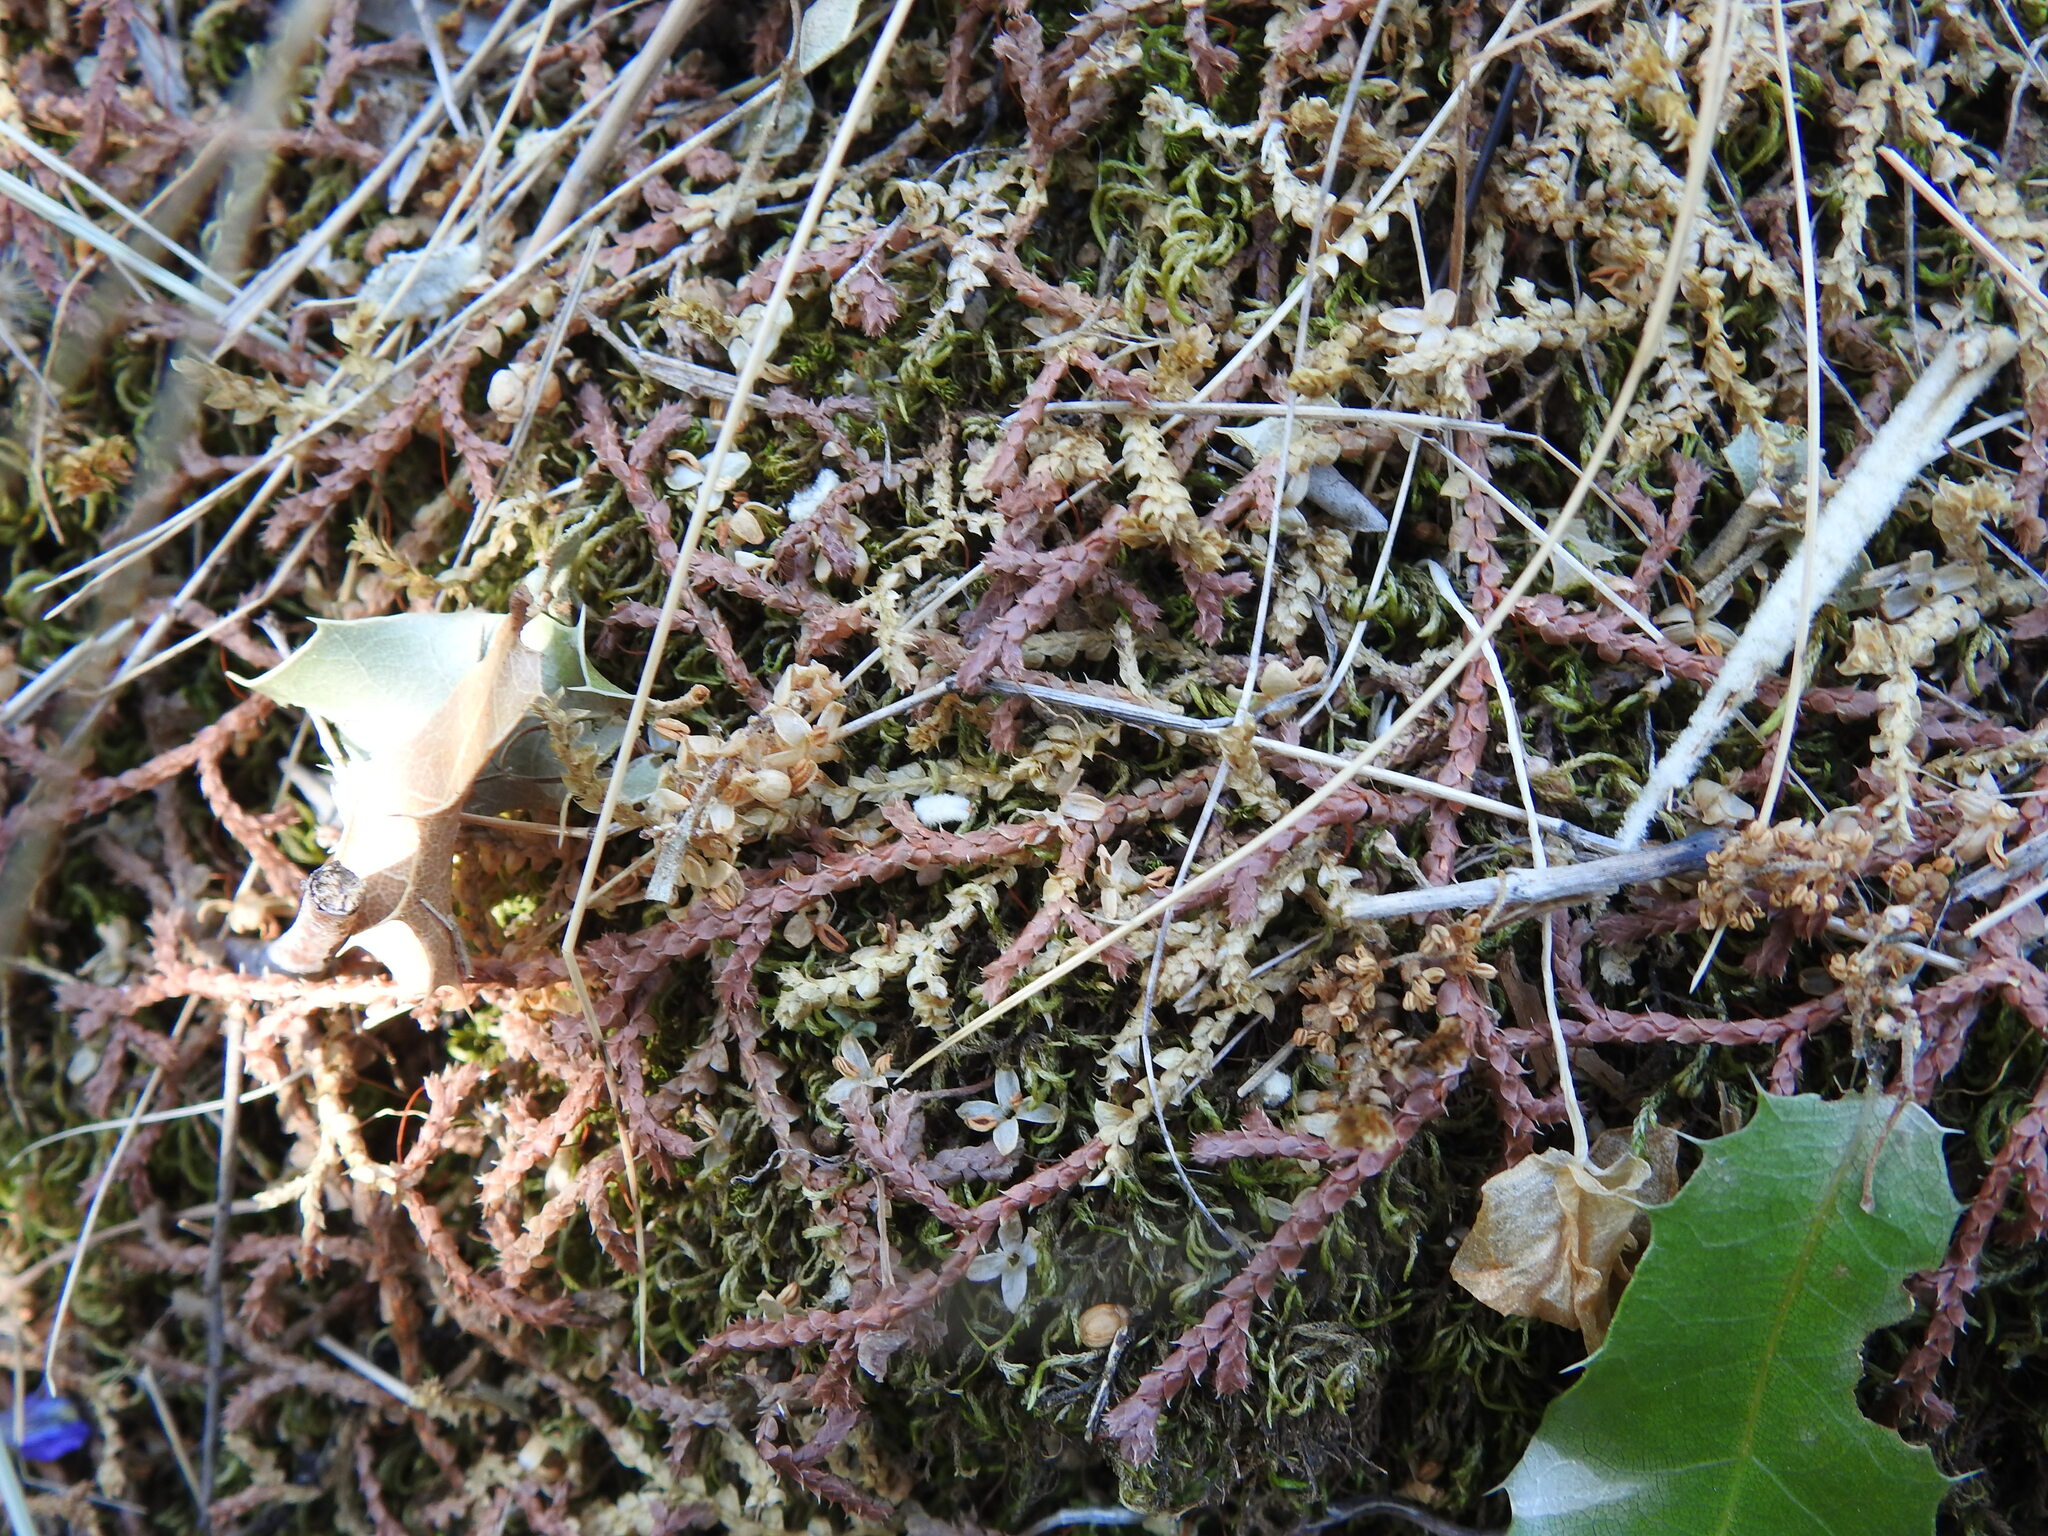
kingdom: Plantae
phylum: Tracheophyta
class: Lycopodiopsida
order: Selaginellales
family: Selaginellaceae
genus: Selaginella
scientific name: Selaginella denticulata
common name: Toothed-leaved clubmoss
